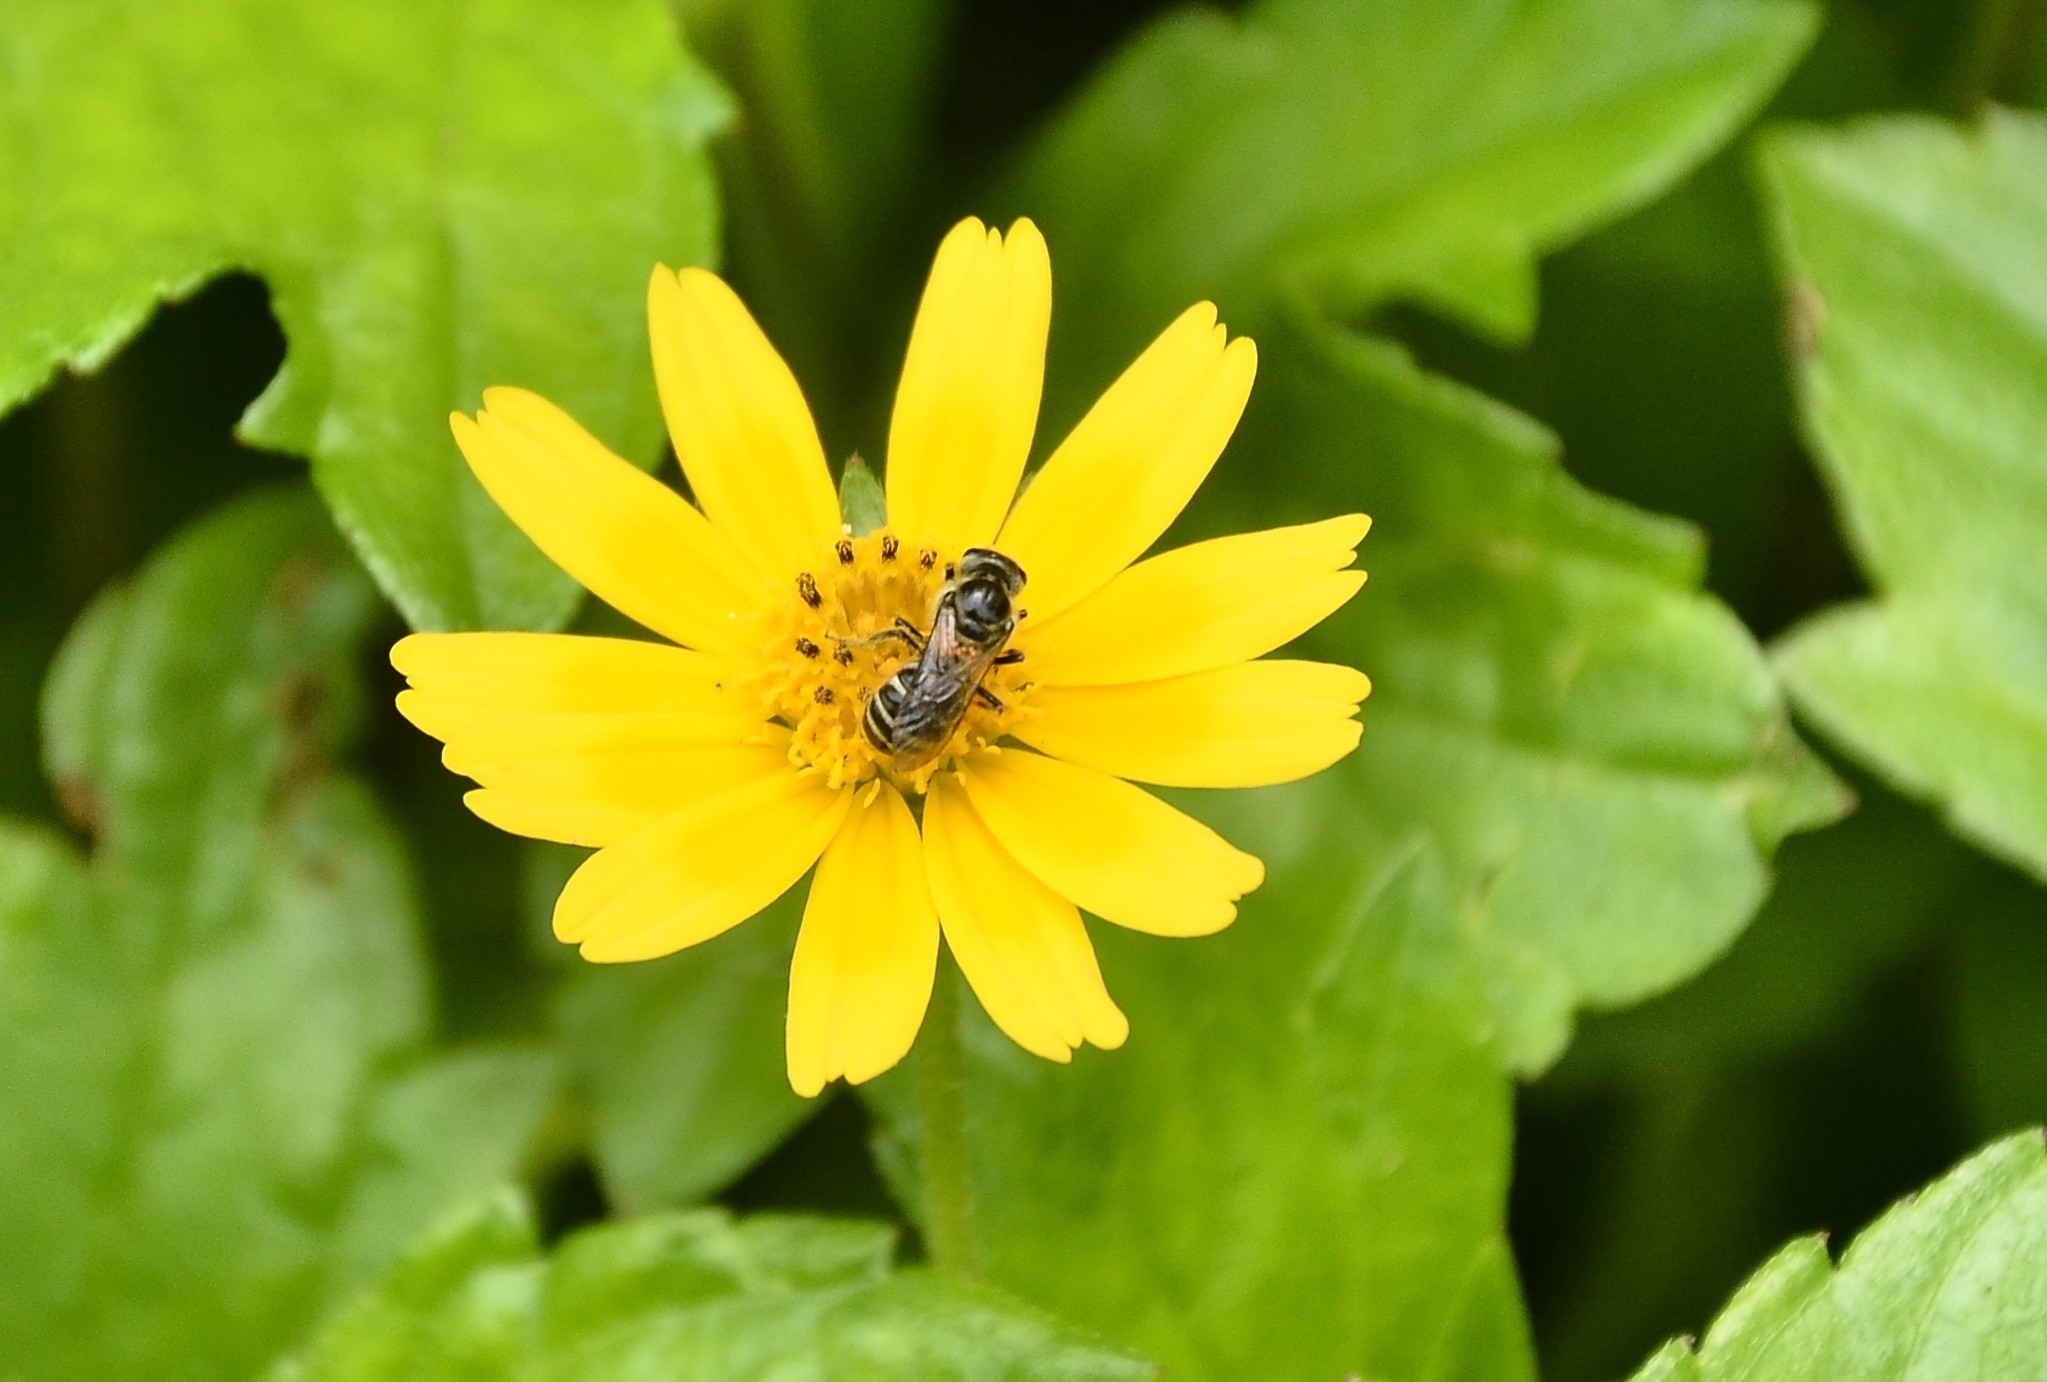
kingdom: Animalia
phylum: Arthropoda
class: Insecta
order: Hymenoptera
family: Halictidae
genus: Lasioglossum
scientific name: Lasioglossum albescens
